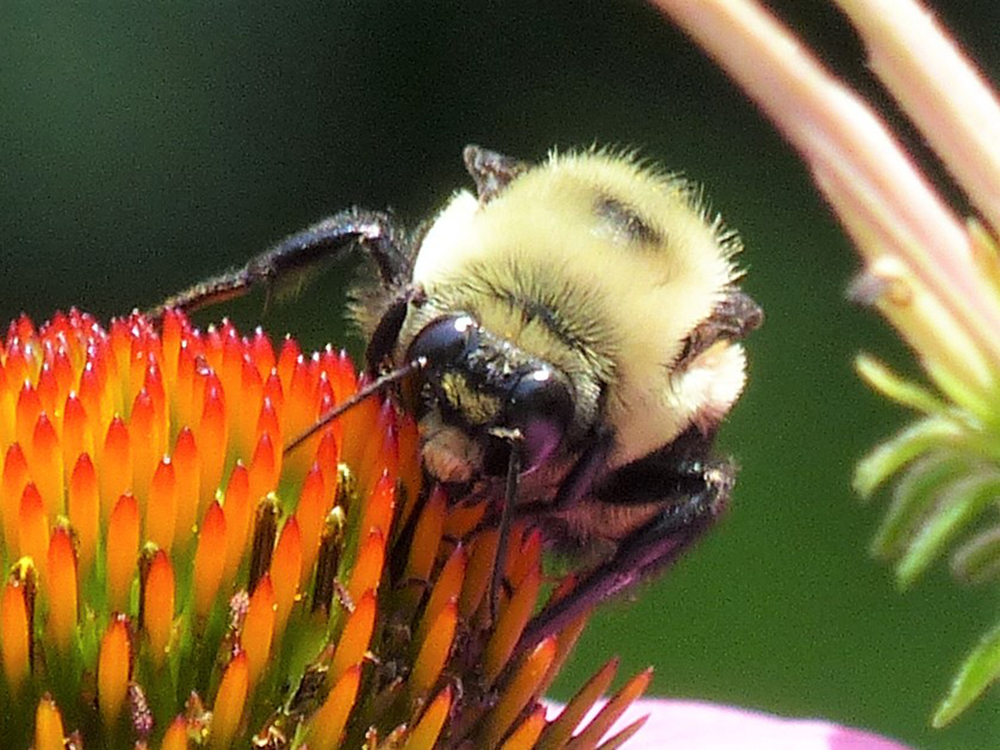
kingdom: Animalia
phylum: Arthropoda
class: Insecta
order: Hymenoptera
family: Apidae
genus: Bombus
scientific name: Bombus griseocollis
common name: Brown-belted bumble bee
